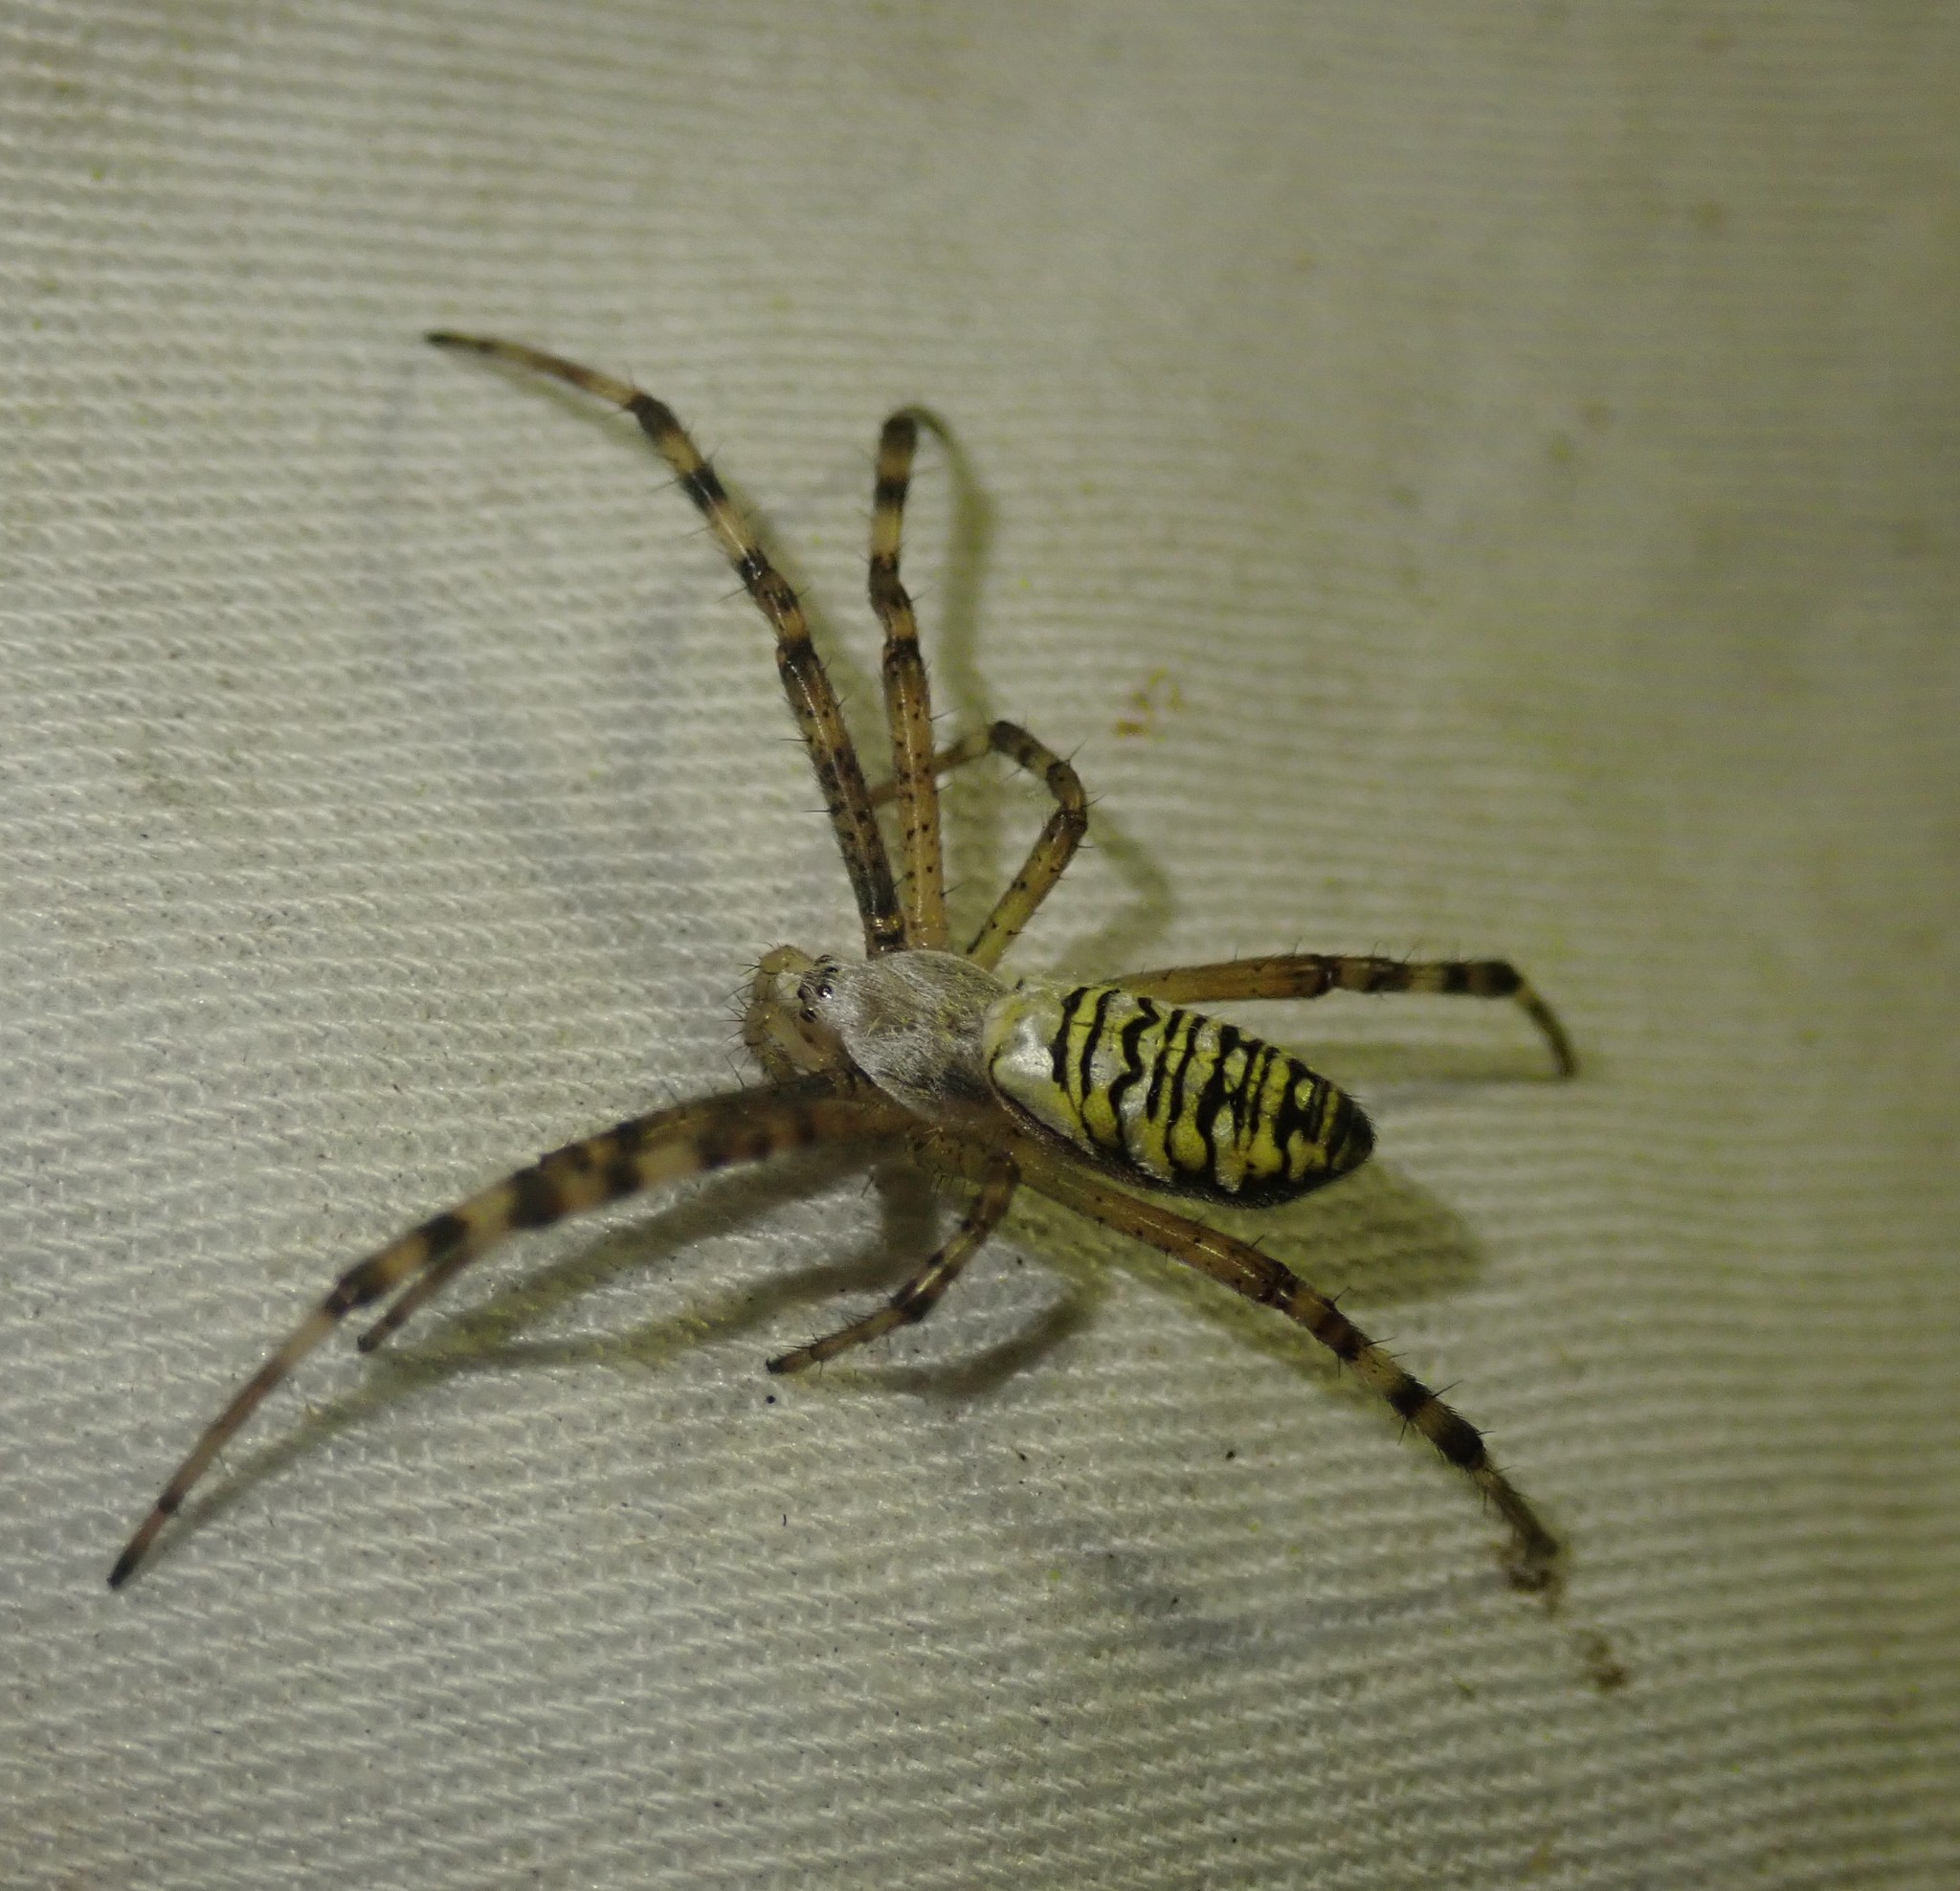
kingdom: Animalia
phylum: Arthropoda
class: Arachnida
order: Araneae
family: Araneidae
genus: Argiope
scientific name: Argiope bruennichi
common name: Wasp spider
